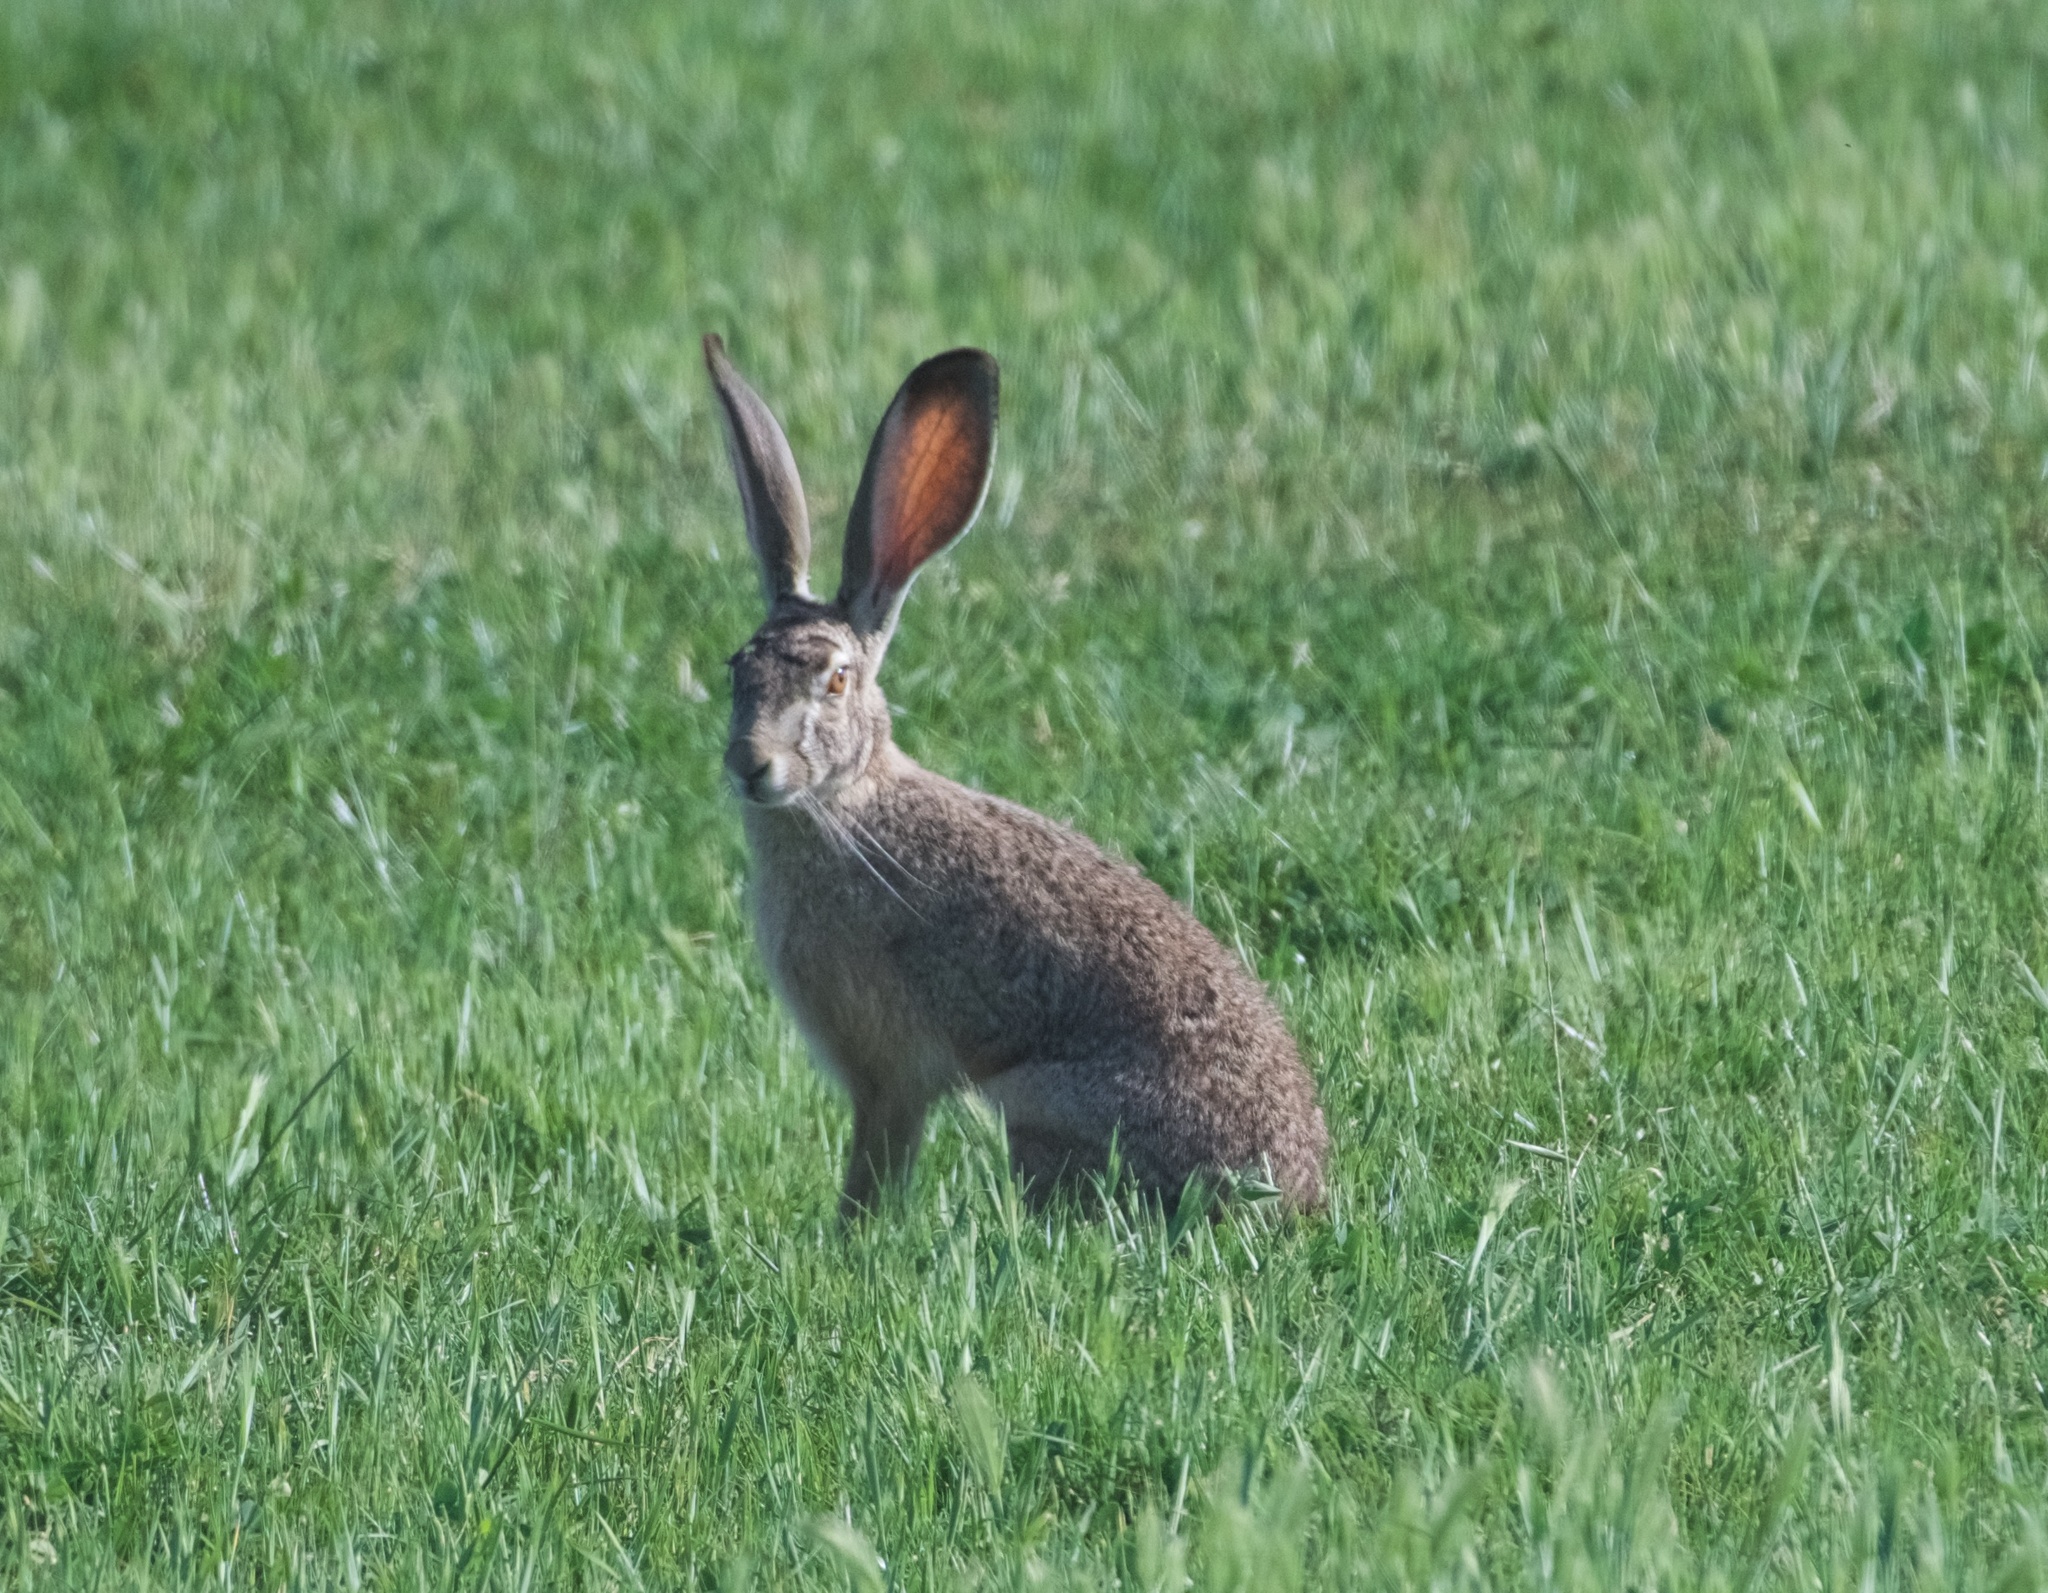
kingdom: Animalia
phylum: Chordata
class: Mammalia
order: Lagomorpha
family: Leporidae
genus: Lepus
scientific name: Lepus californicus
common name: Black-tailed jackrabbit
